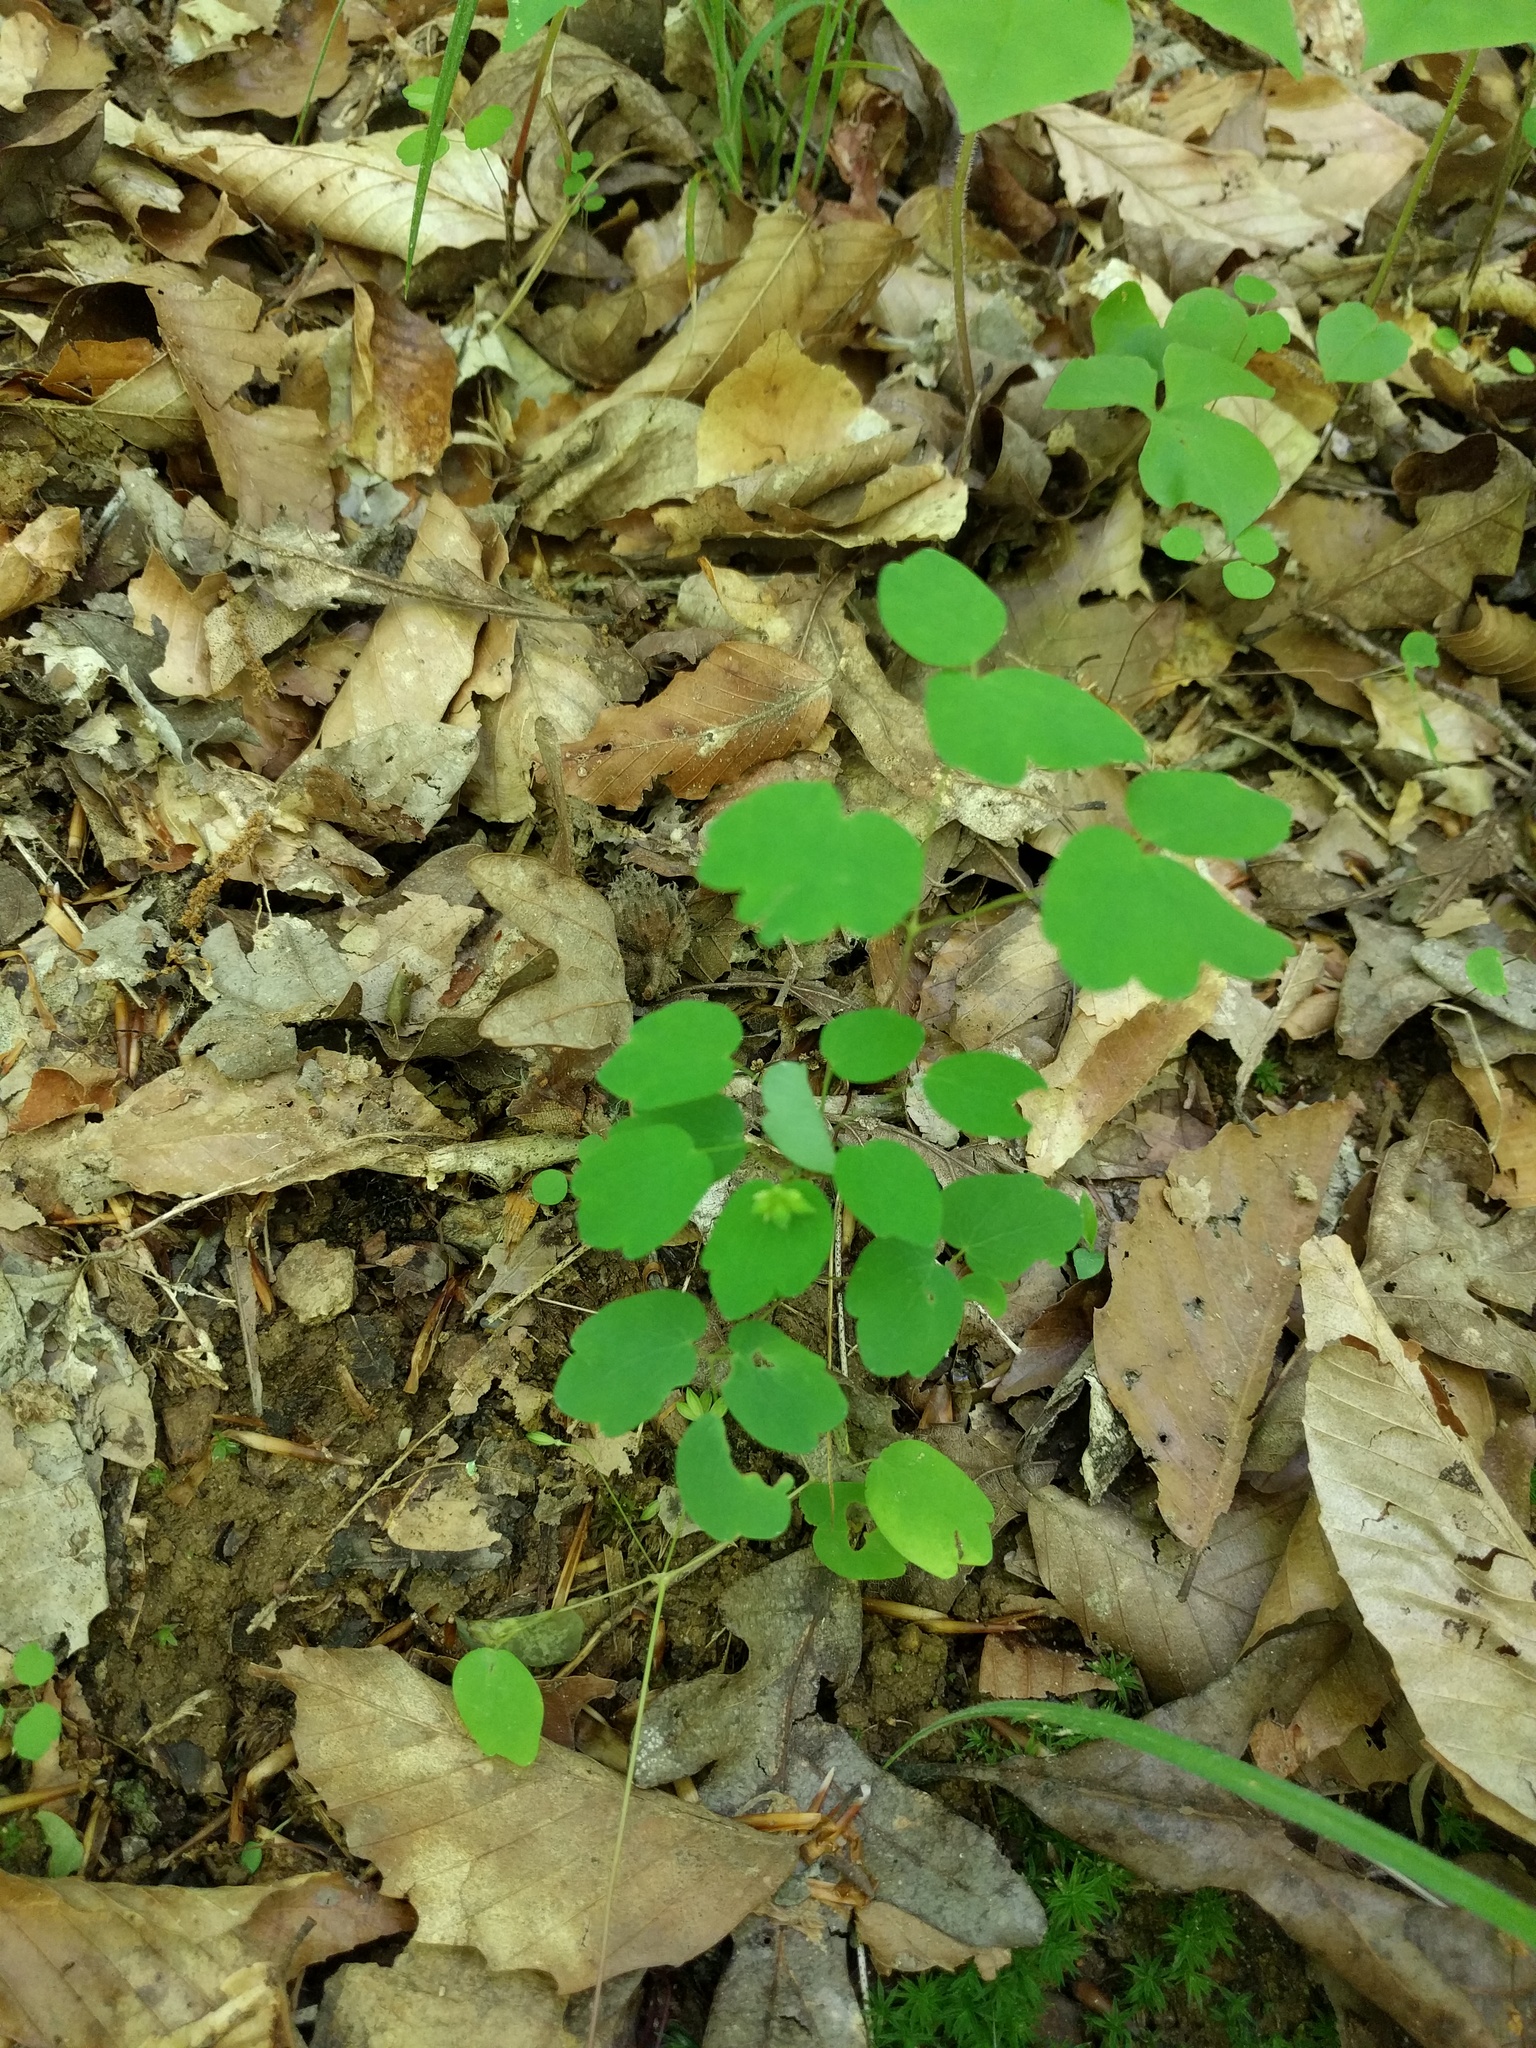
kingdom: Plantae
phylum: Tracheophyta
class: Magnoliopsida
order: Ranunculales
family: Ranunculaceae
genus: Thalictrum
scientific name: Thalictrum thalictroides
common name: Rue-anemone
